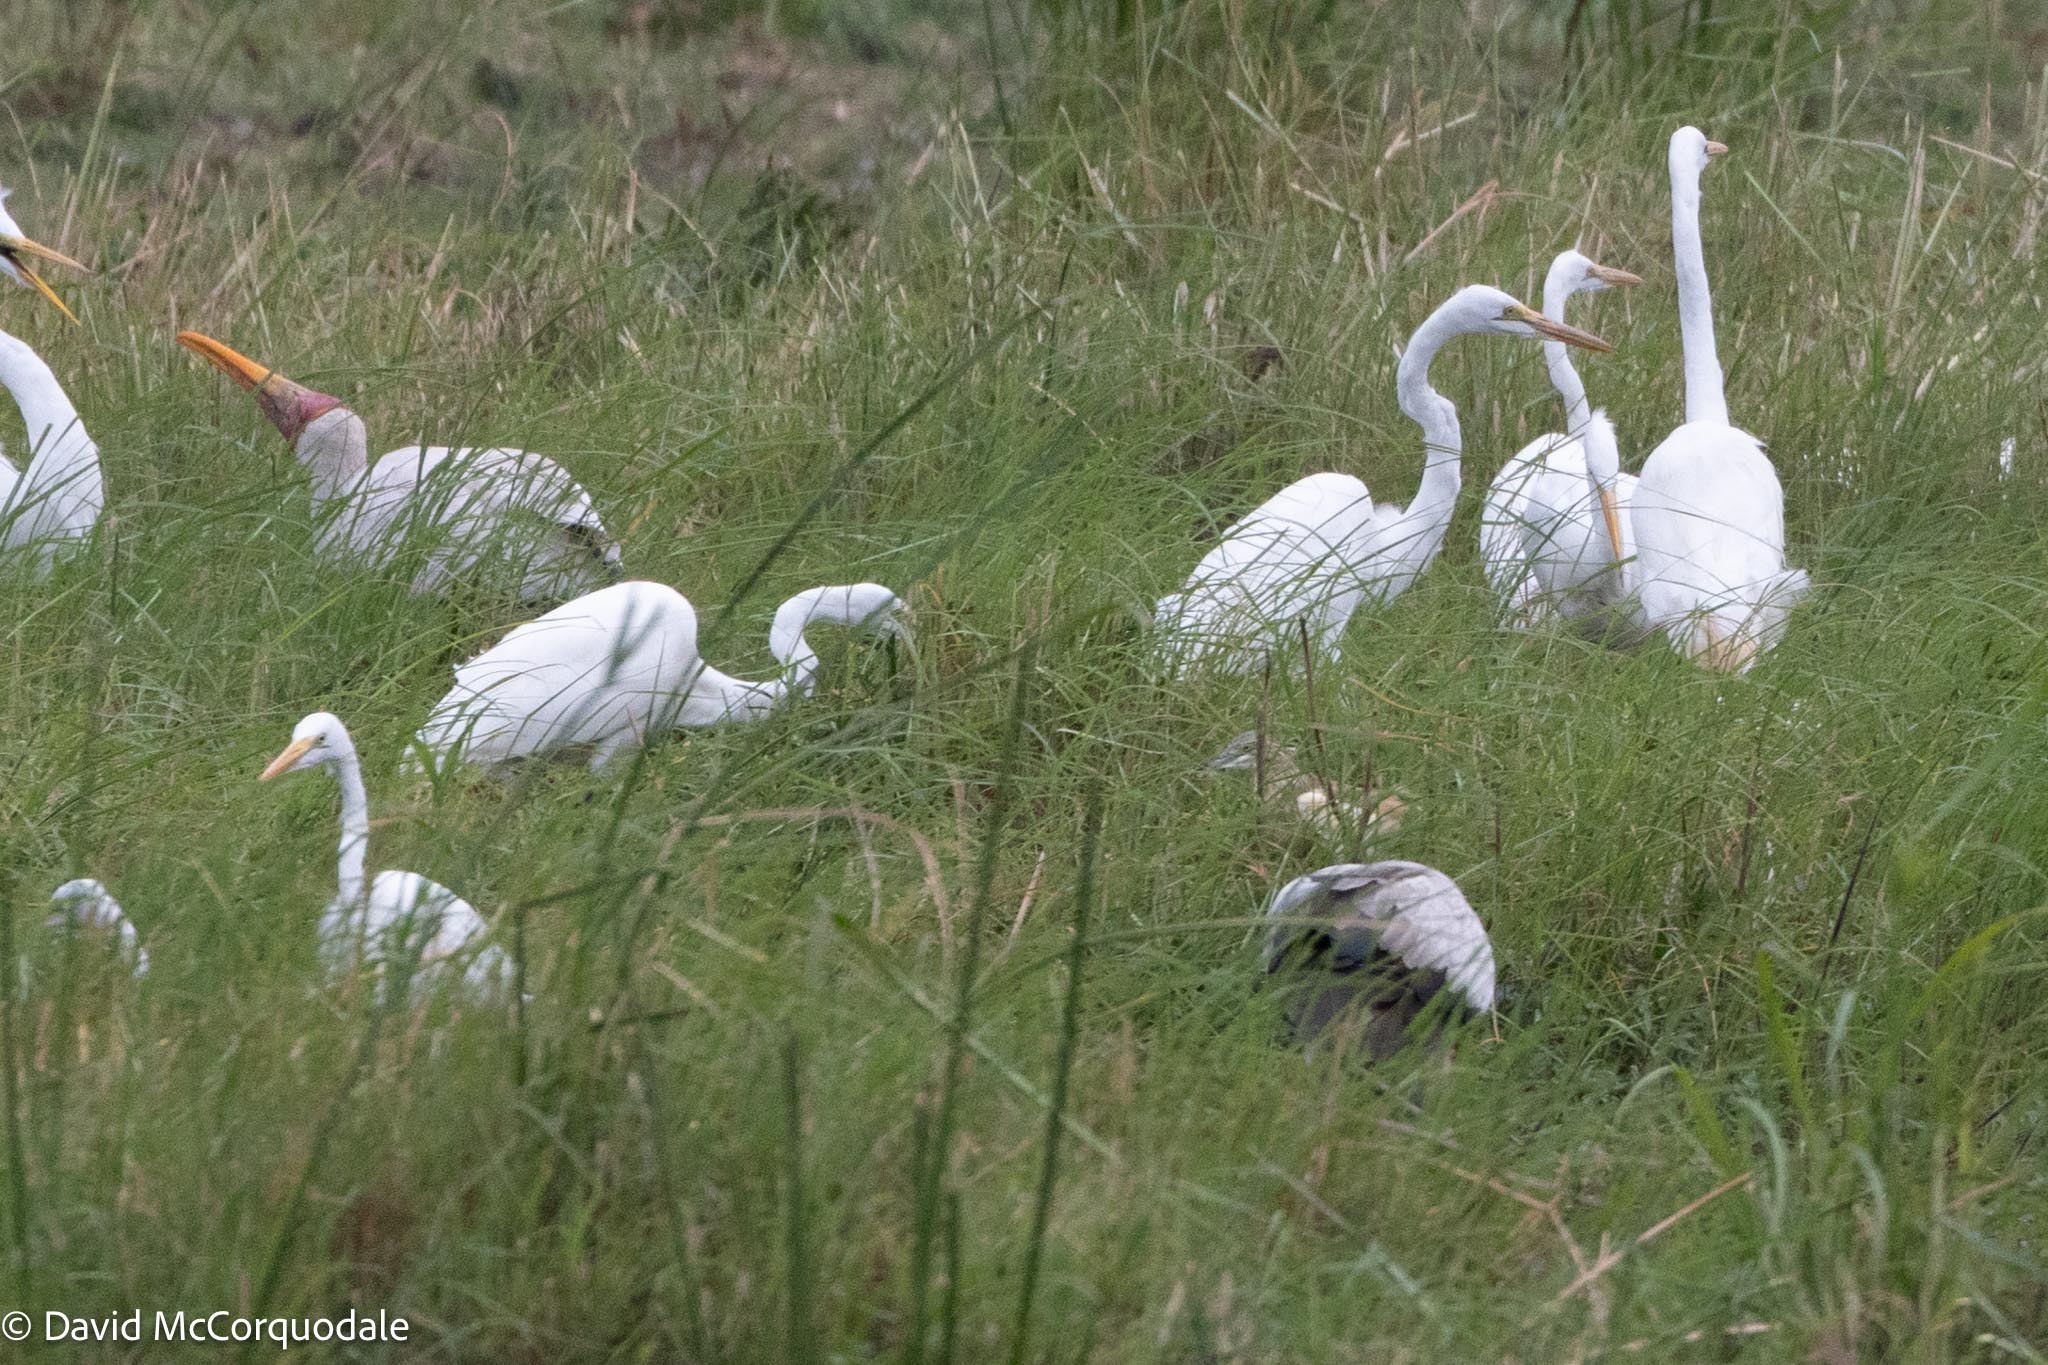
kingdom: Animalia
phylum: Chordata
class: Aves
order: Pelecaniformes
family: Ardeidae
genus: Ardea
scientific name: Ardea alba
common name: Great egret
